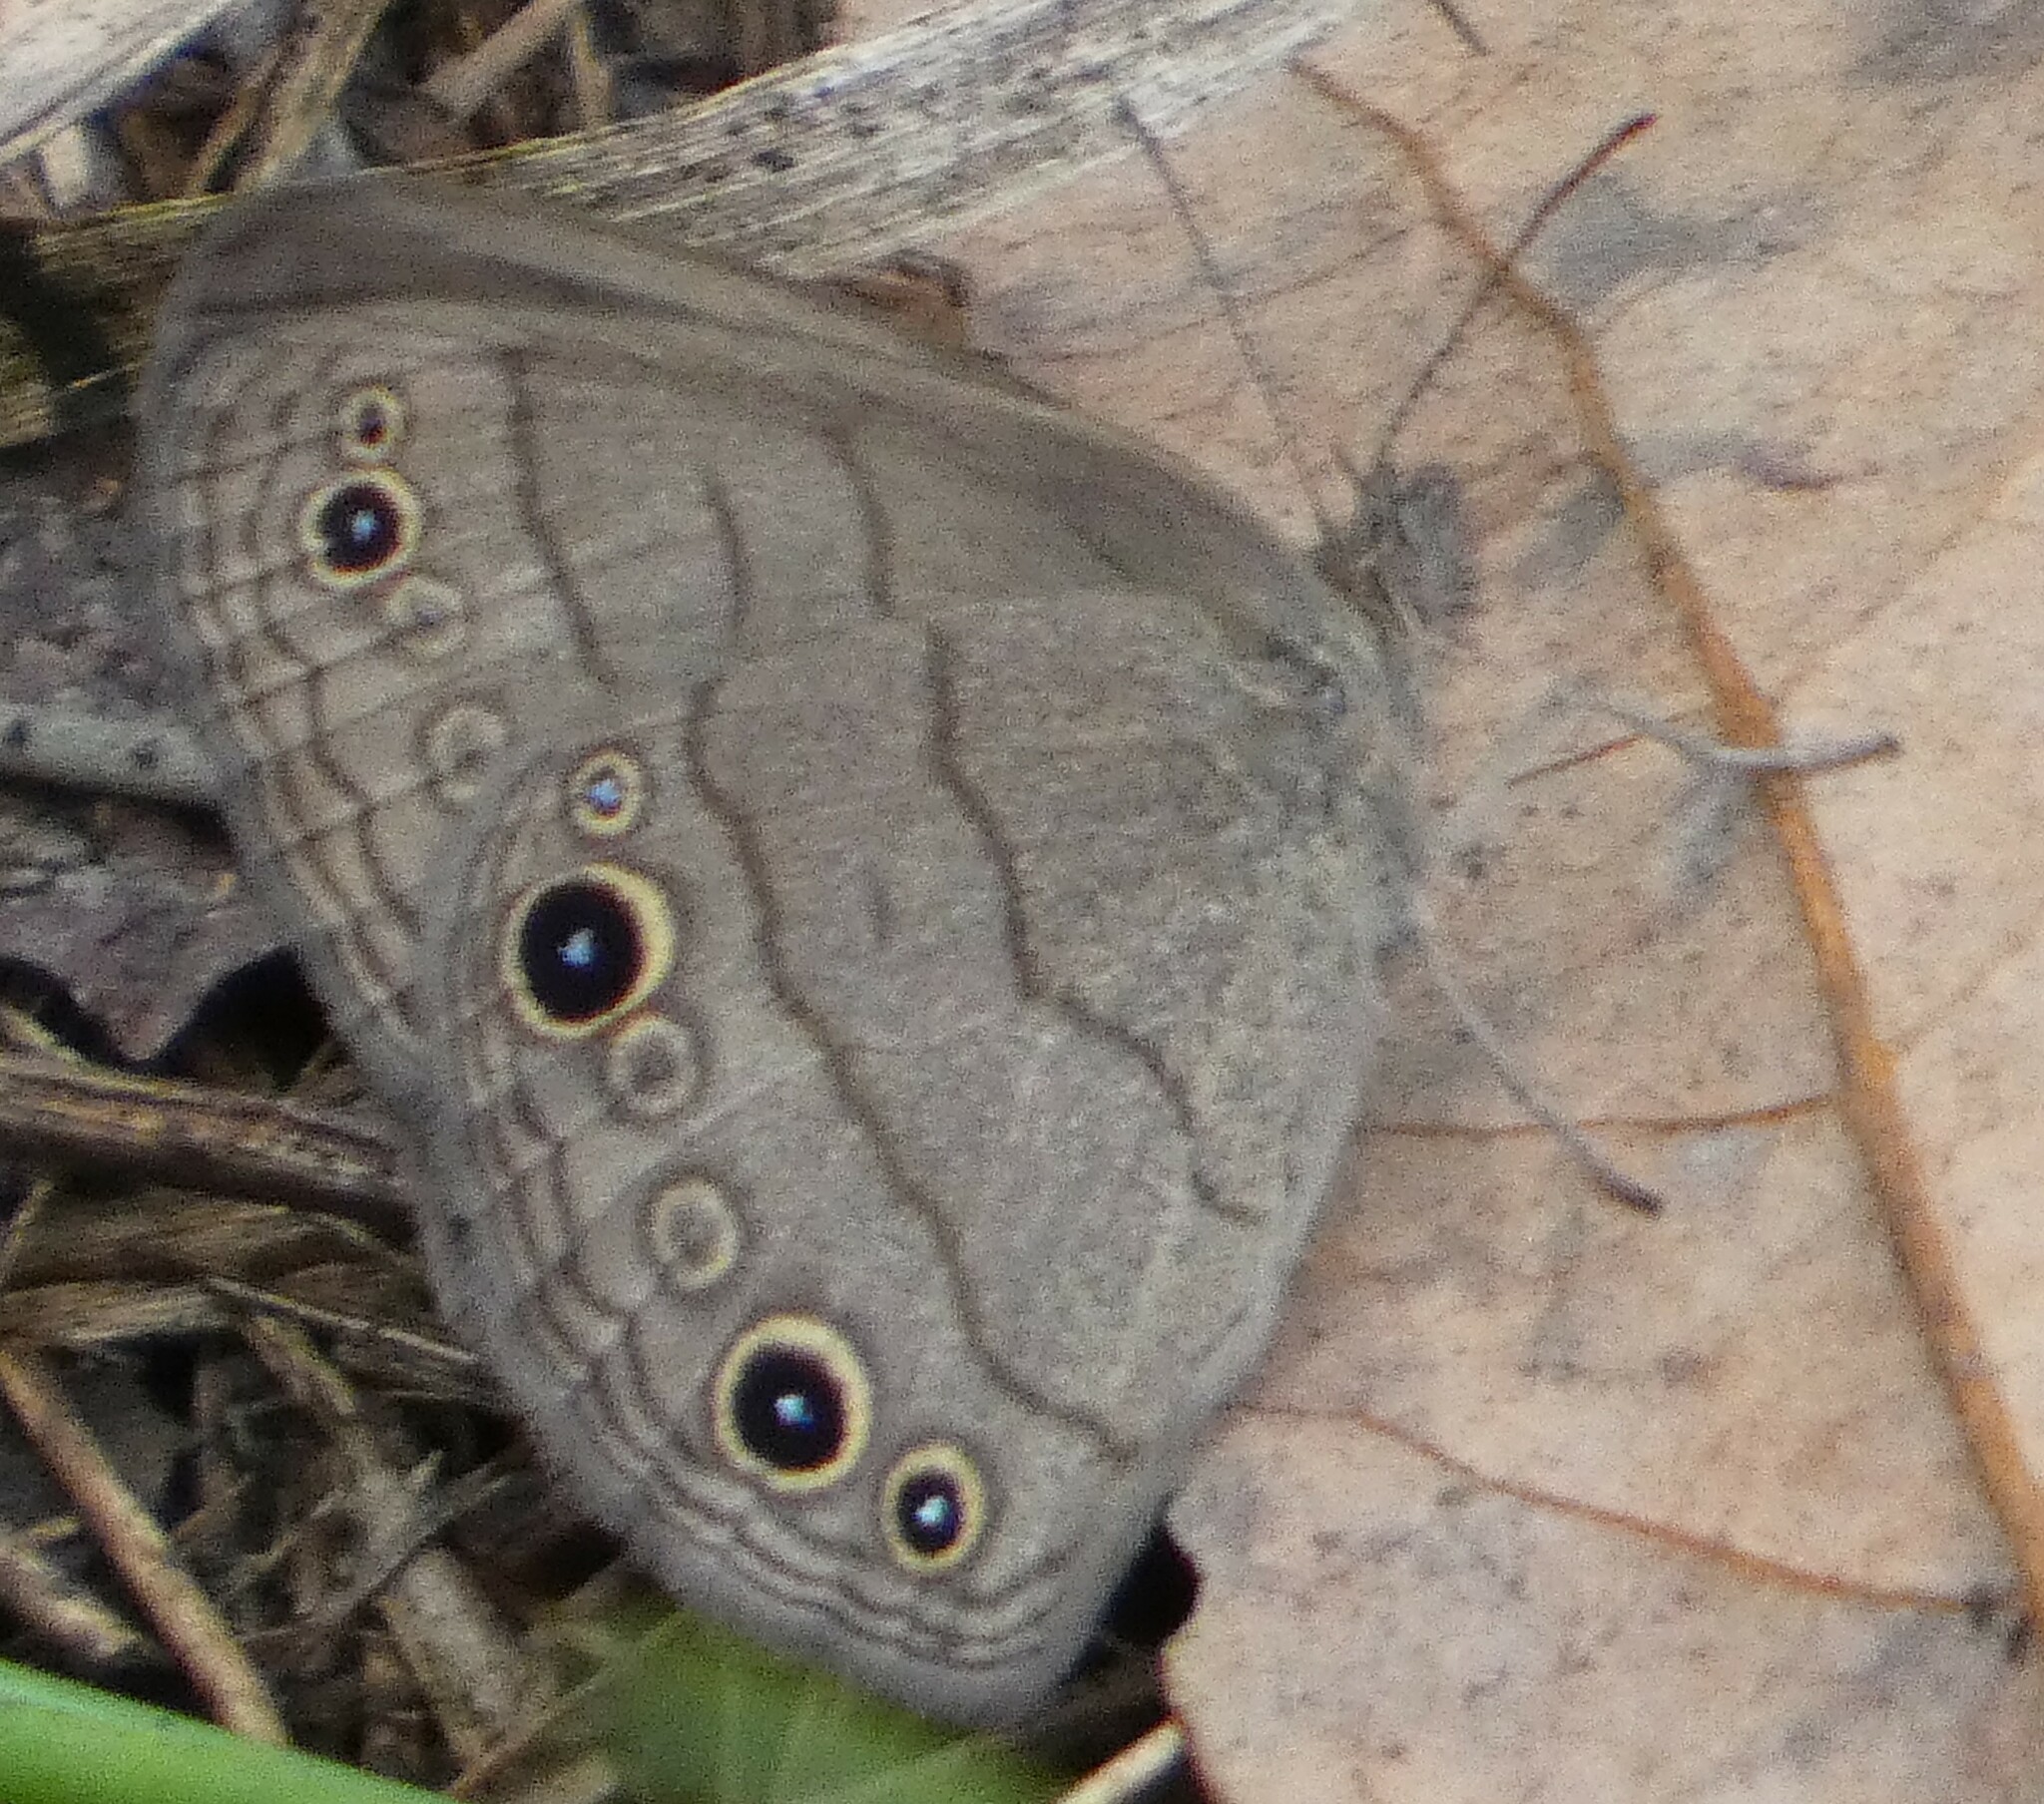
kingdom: Animalia
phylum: Arthropoda
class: Insecta
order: Lepidoptera
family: Nymphalidae
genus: Hermeuptychia
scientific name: Hermeuptychia hermes
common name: Hermes satyr
